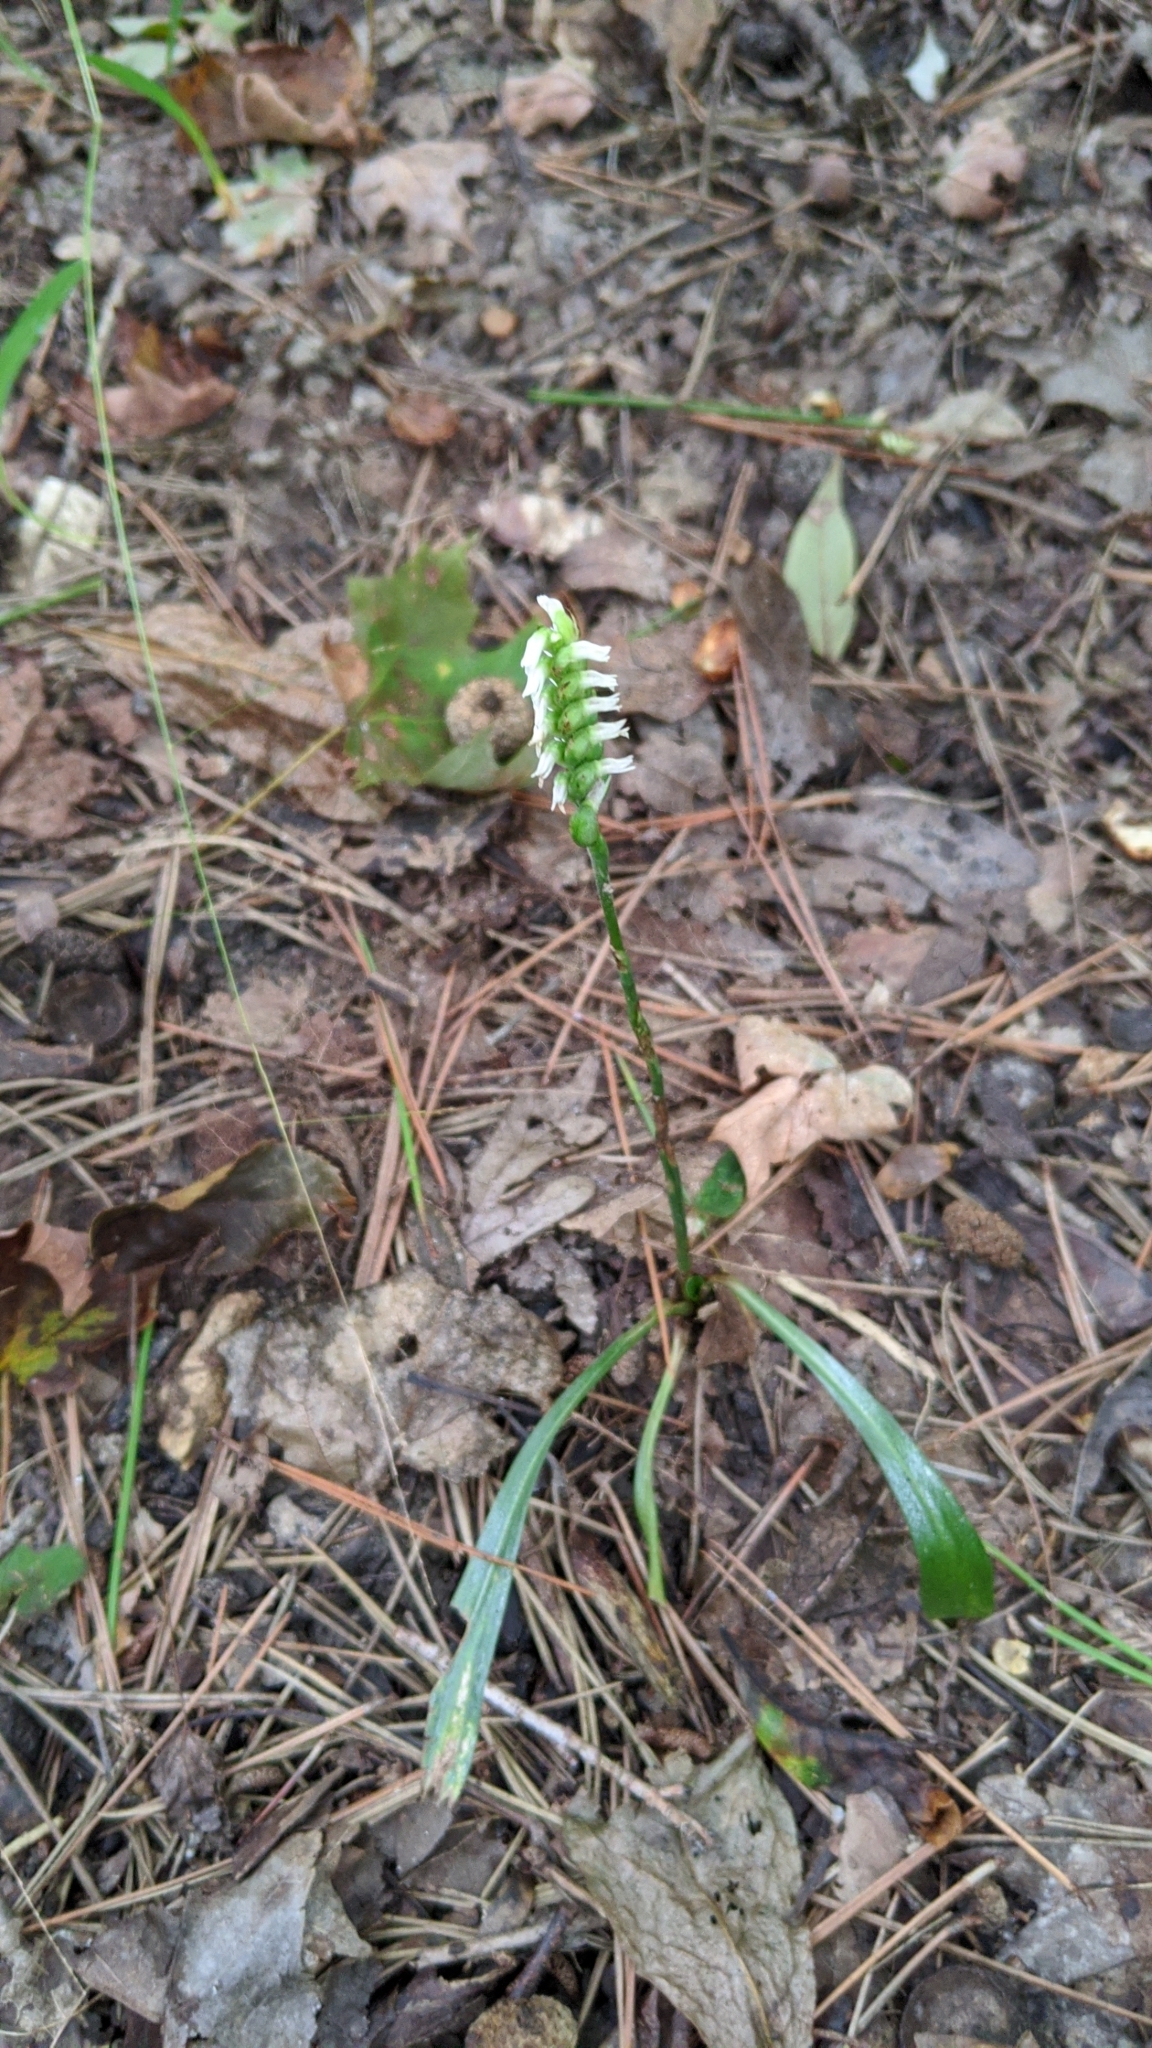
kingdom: Plantae
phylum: Tracheophyta
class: Liliopsida
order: Asparagales
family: Orchidaceae
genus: Spiranthes
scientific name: Spiranthes ovalis
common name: October ladies'-tresses
